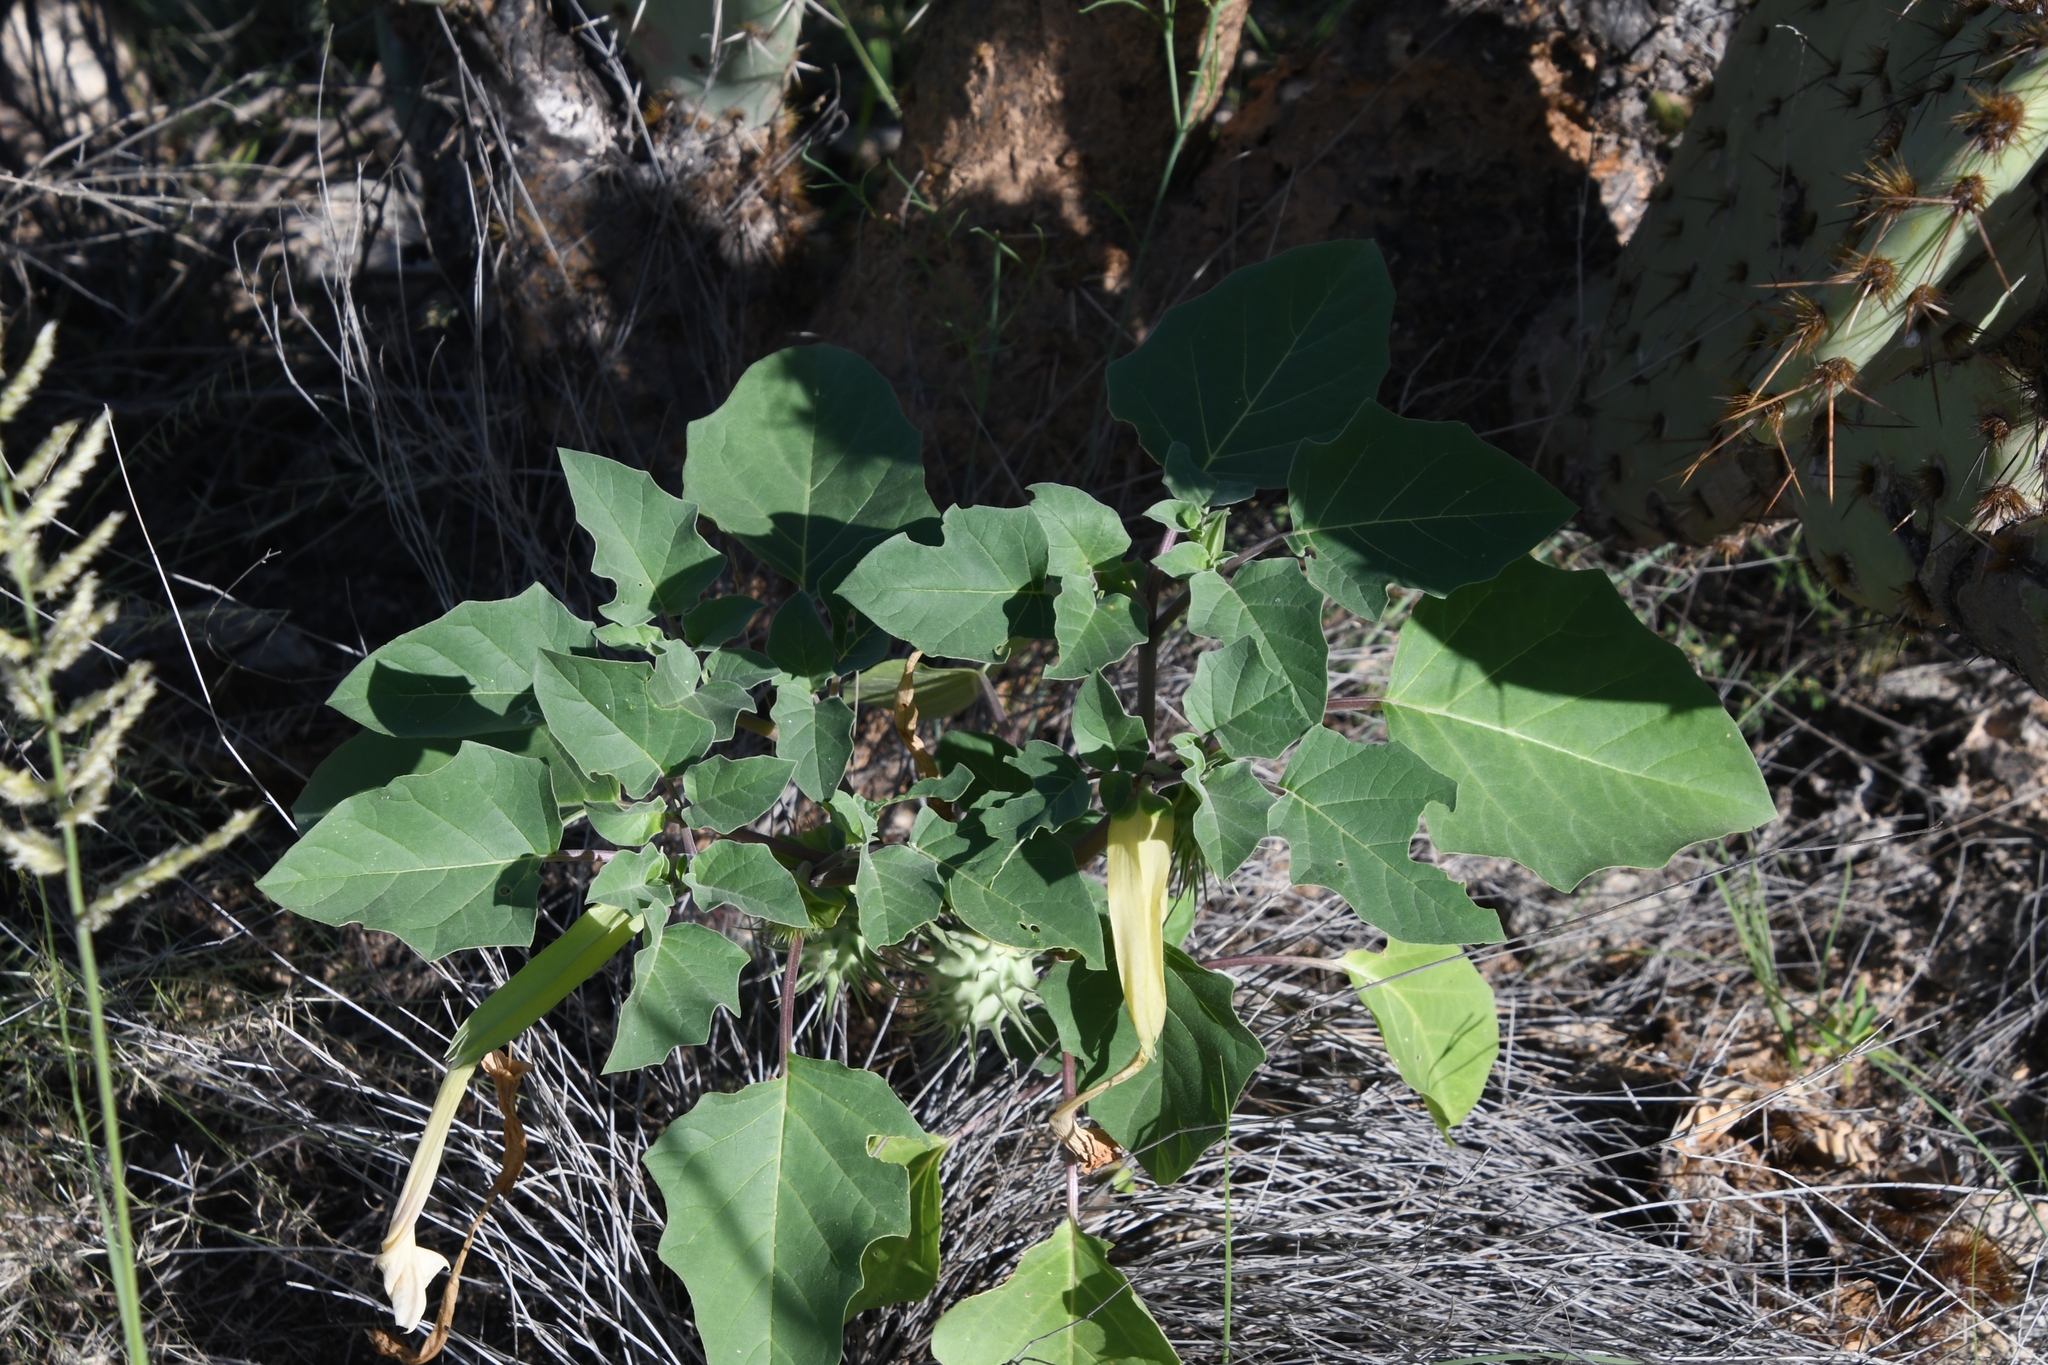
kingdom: Plantae
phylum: Tracheophyta
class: Magnoliopsida
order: Solanales
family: Solanaceae
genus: Datura
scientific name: Datura discolor
